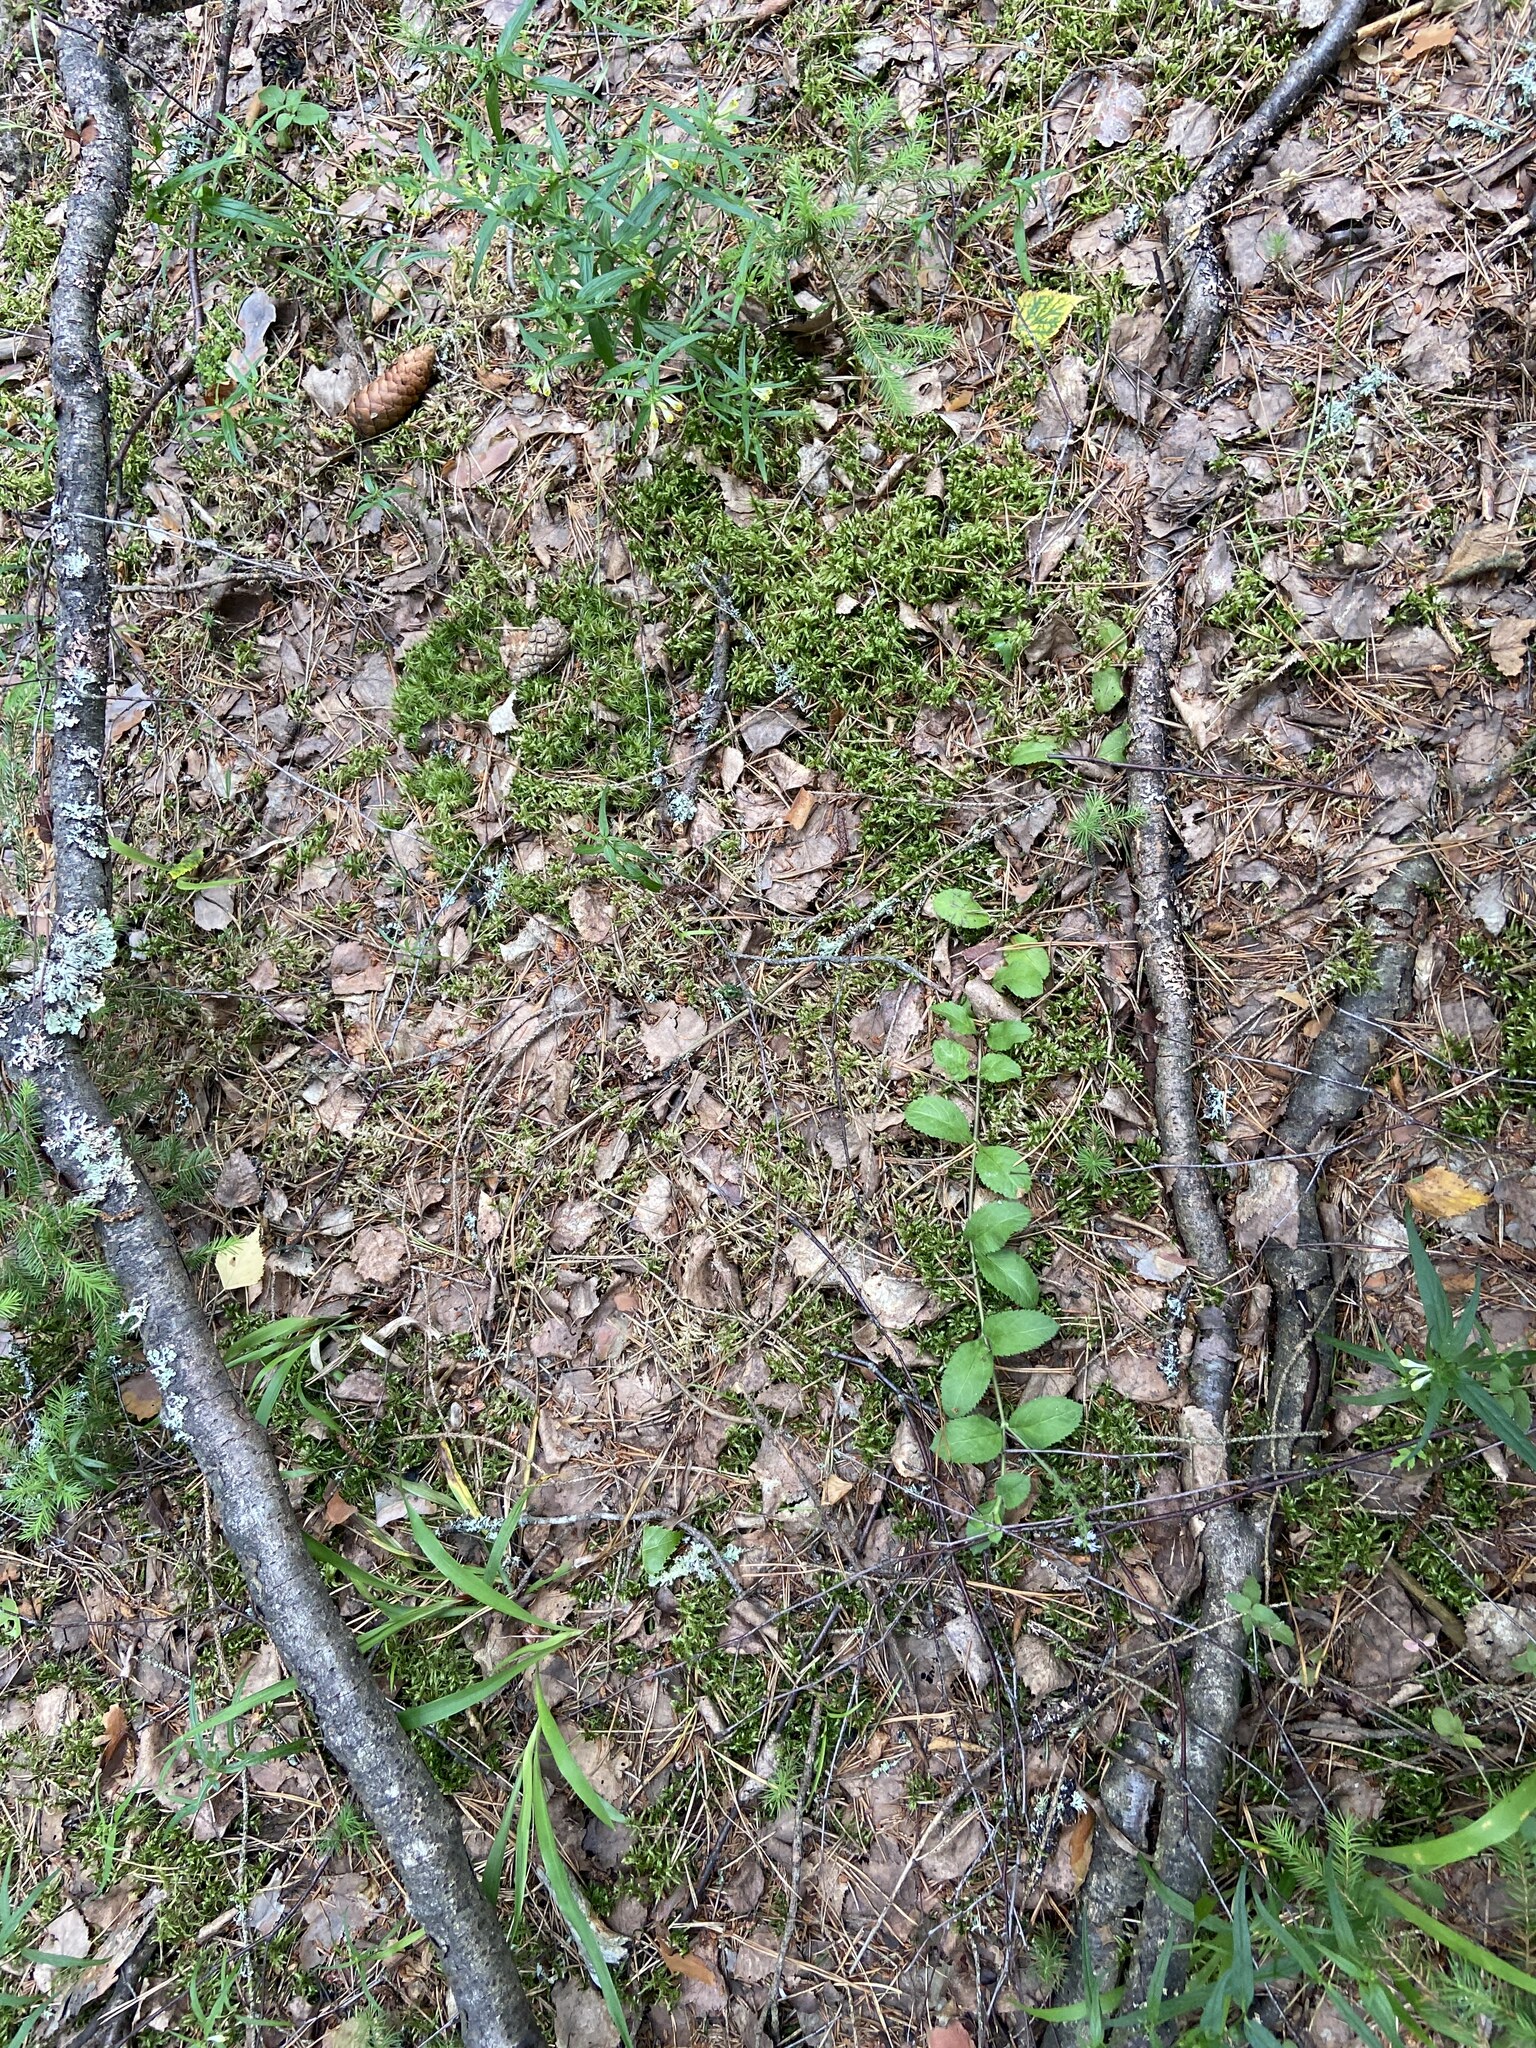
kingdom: Plantae
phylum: Tracheophyta
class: Magnoliopsida
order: Lamiales
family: Plantaginaceae
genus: Veronica
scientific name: Veronica officinalis
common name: Common speedwell
